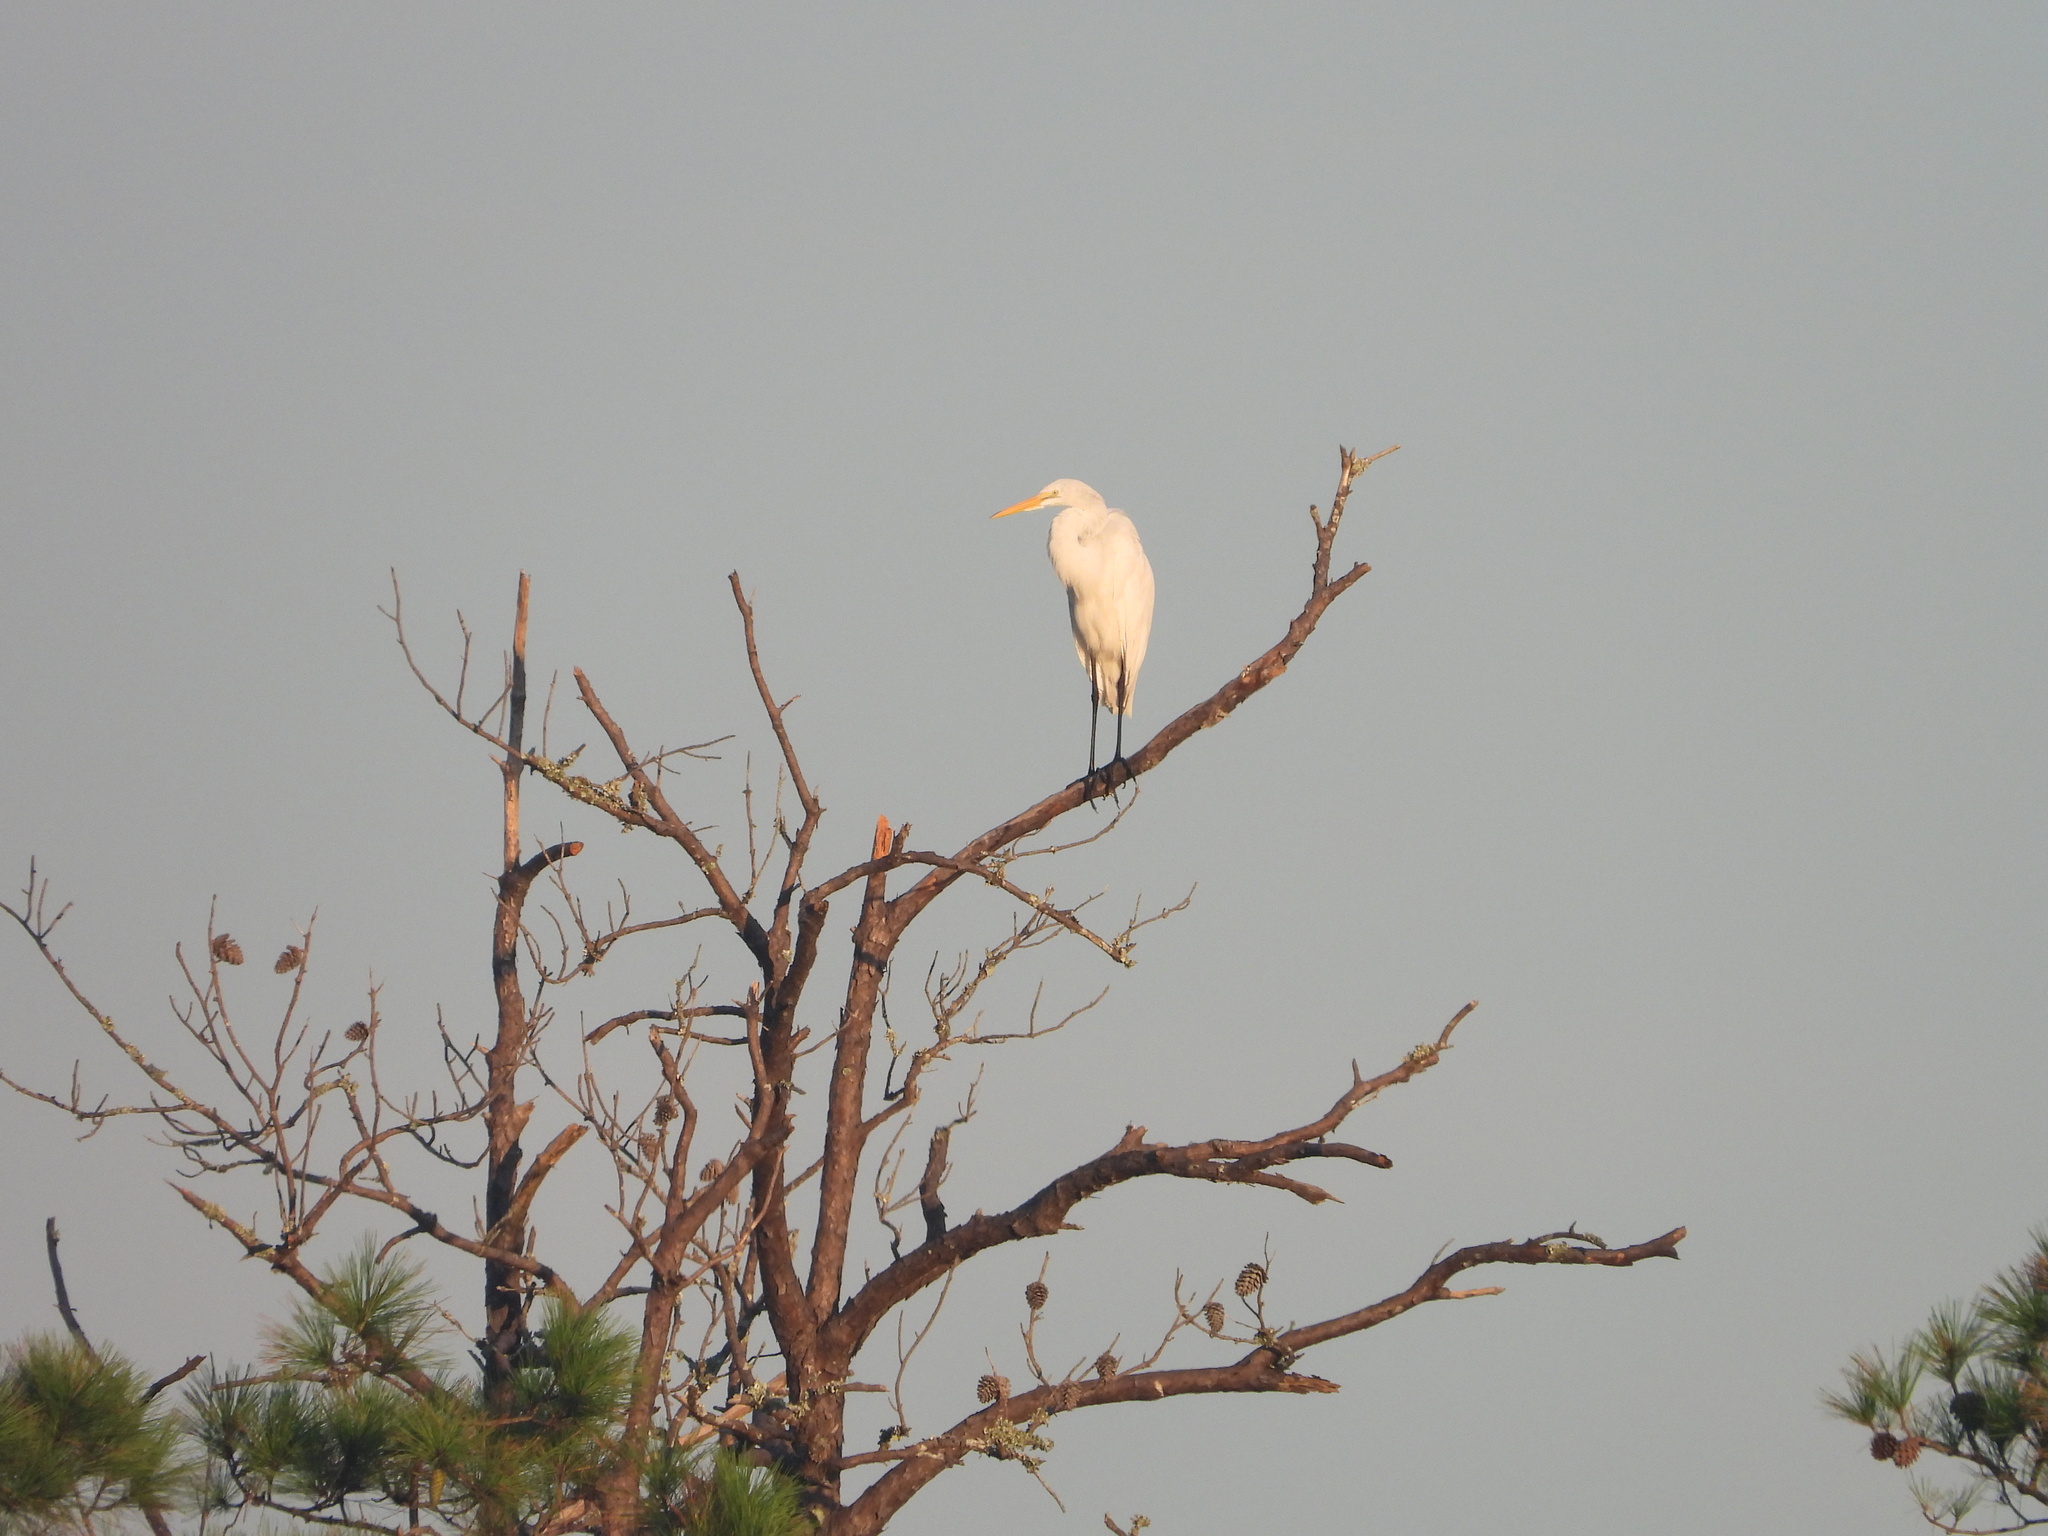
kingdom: Animalia
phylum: Chordata
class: Aves
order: Pelecaniformes
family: Ardeidae
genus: Ardea
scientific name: Ardea alba
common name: Great egret
